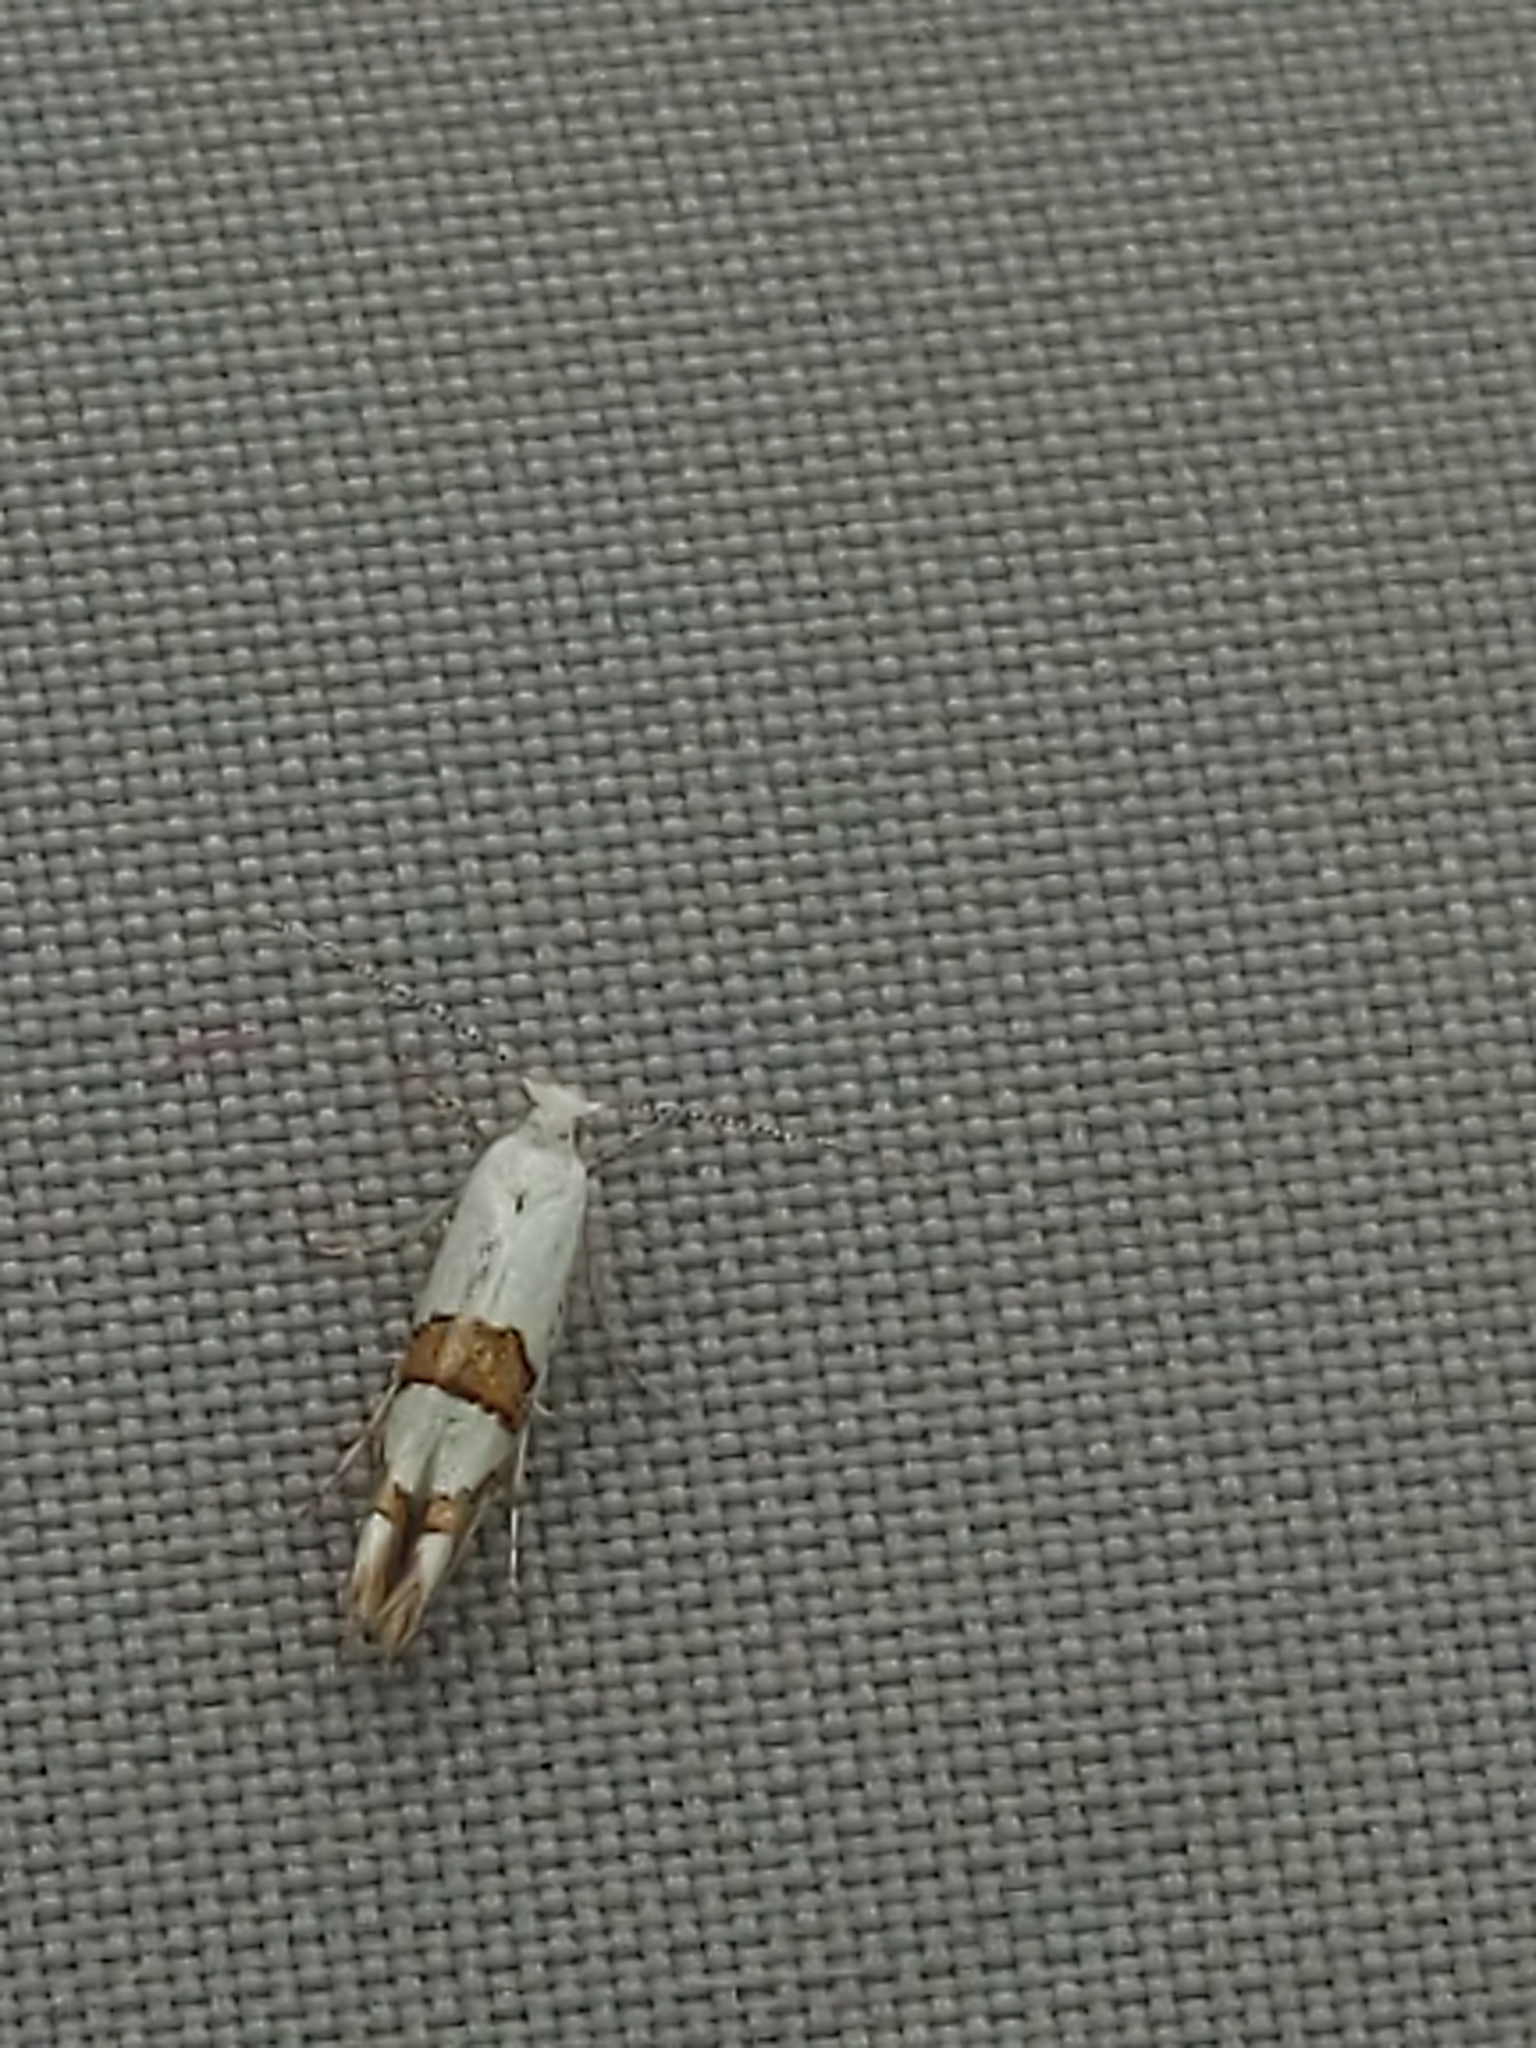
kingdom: Animalia
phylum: Arthropoda
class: Insecta
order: Lepidoptera
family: Argyresthiidae
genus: Argyresthia
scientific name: Argyresthia oreasella
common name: Cherry shoot borer moth
